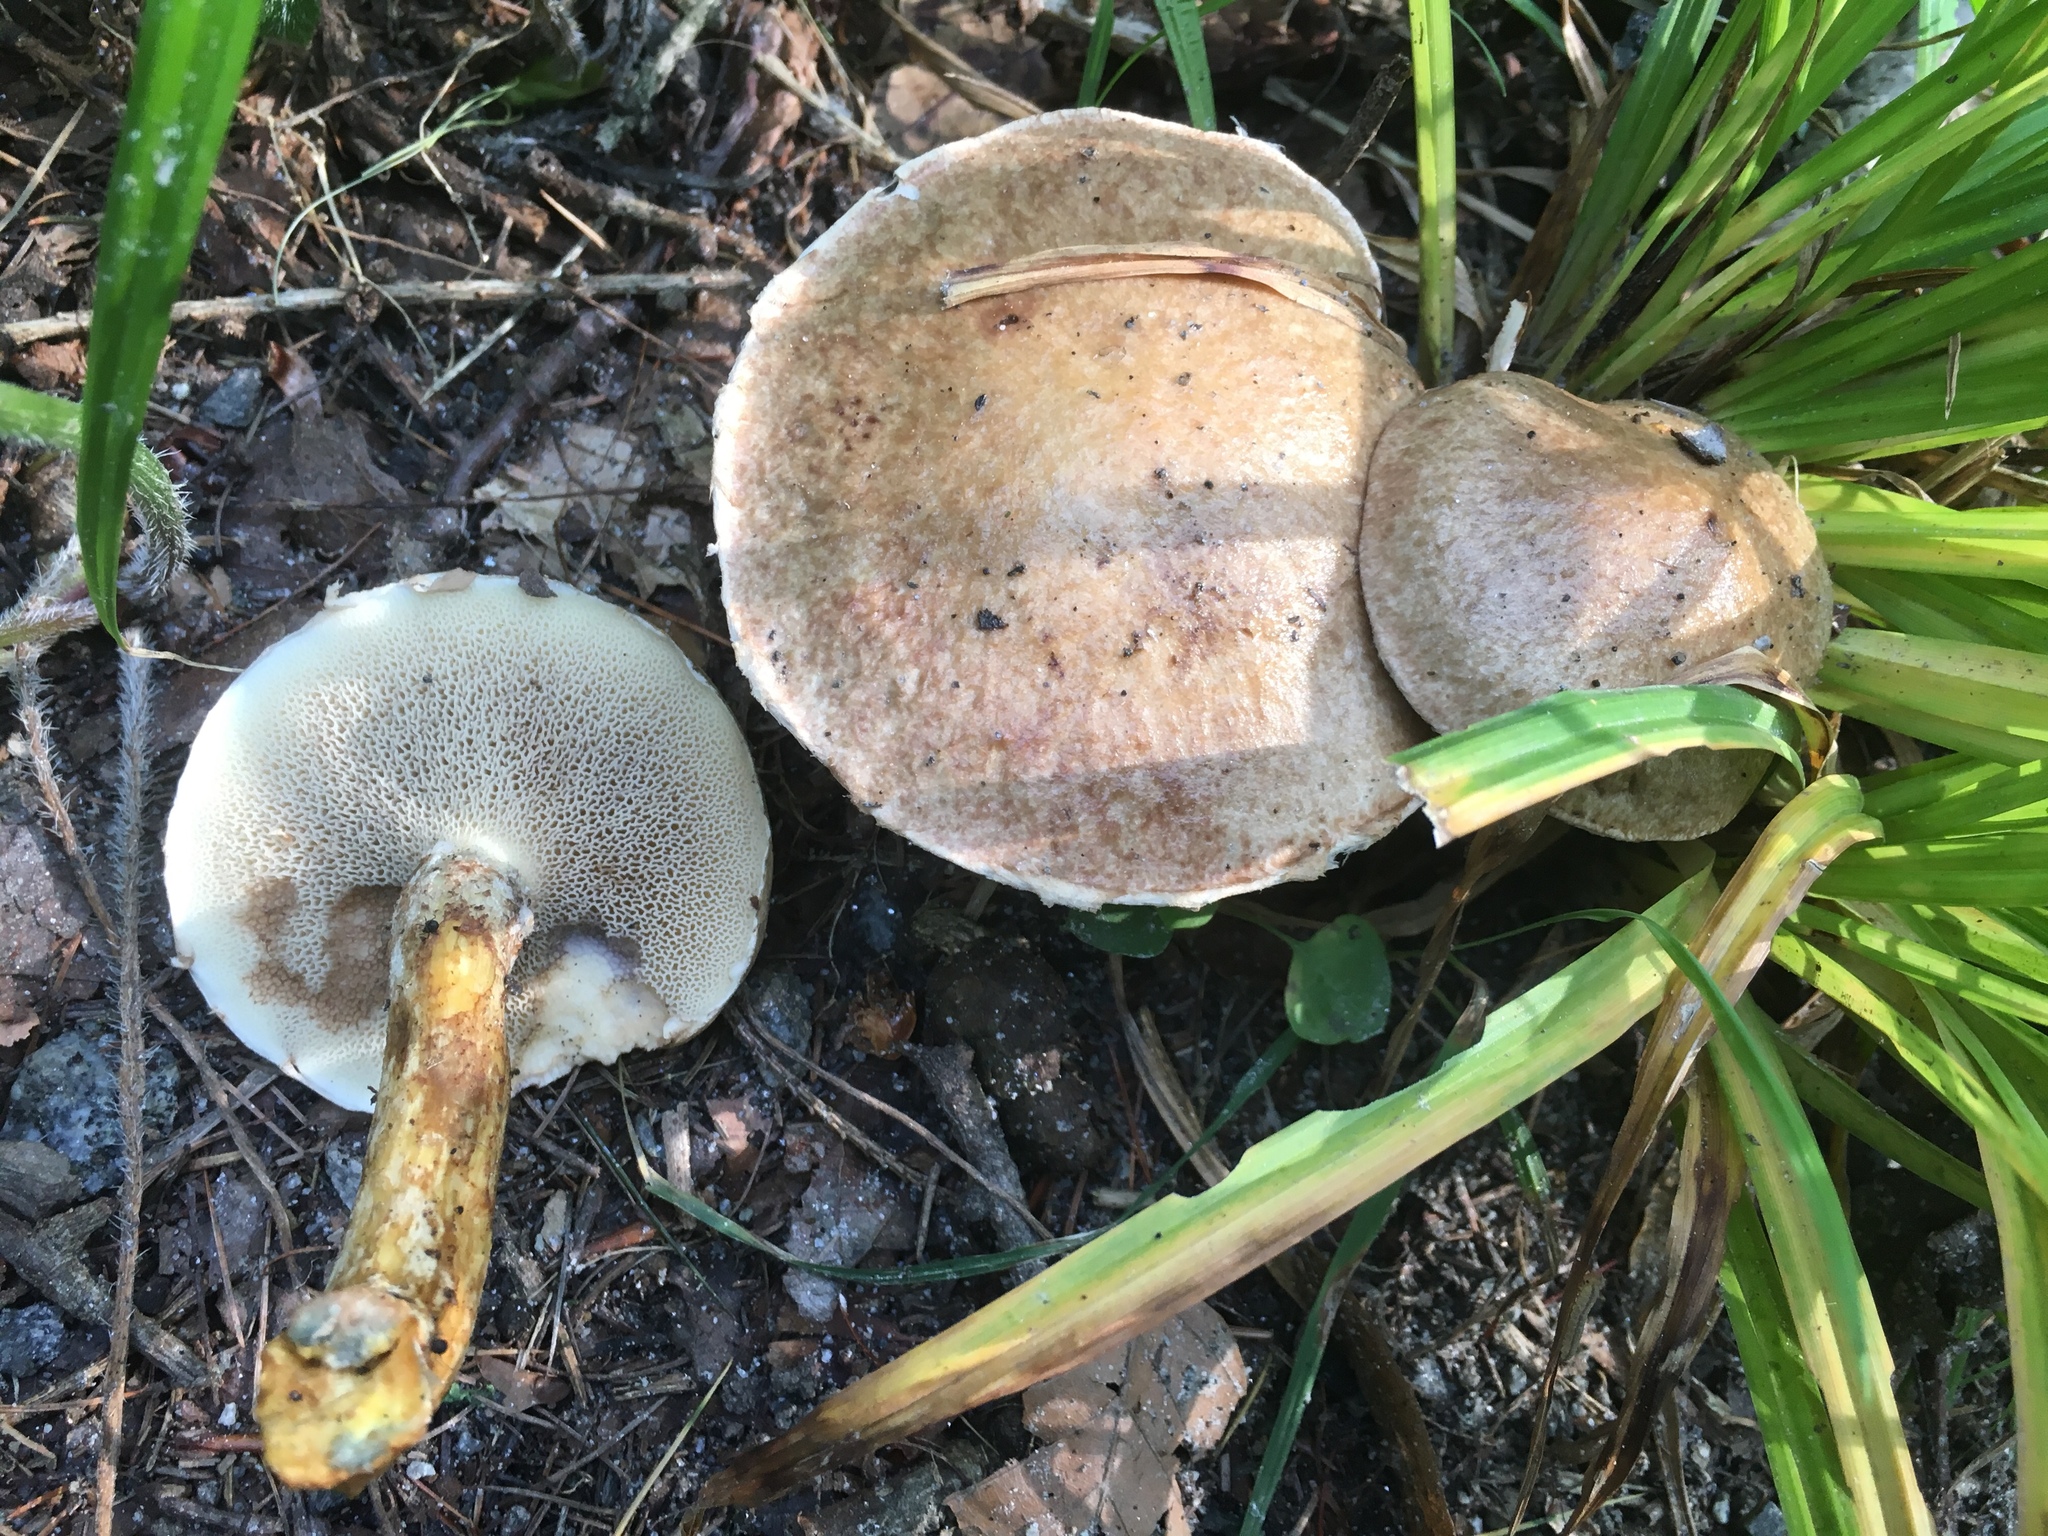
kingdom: Fungi
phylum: Basidiomycota
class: Agaricomycetes
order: Boletales
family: Suillaceae
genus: Suillus
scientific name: Suillus viscidus
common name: Sticky bolete
